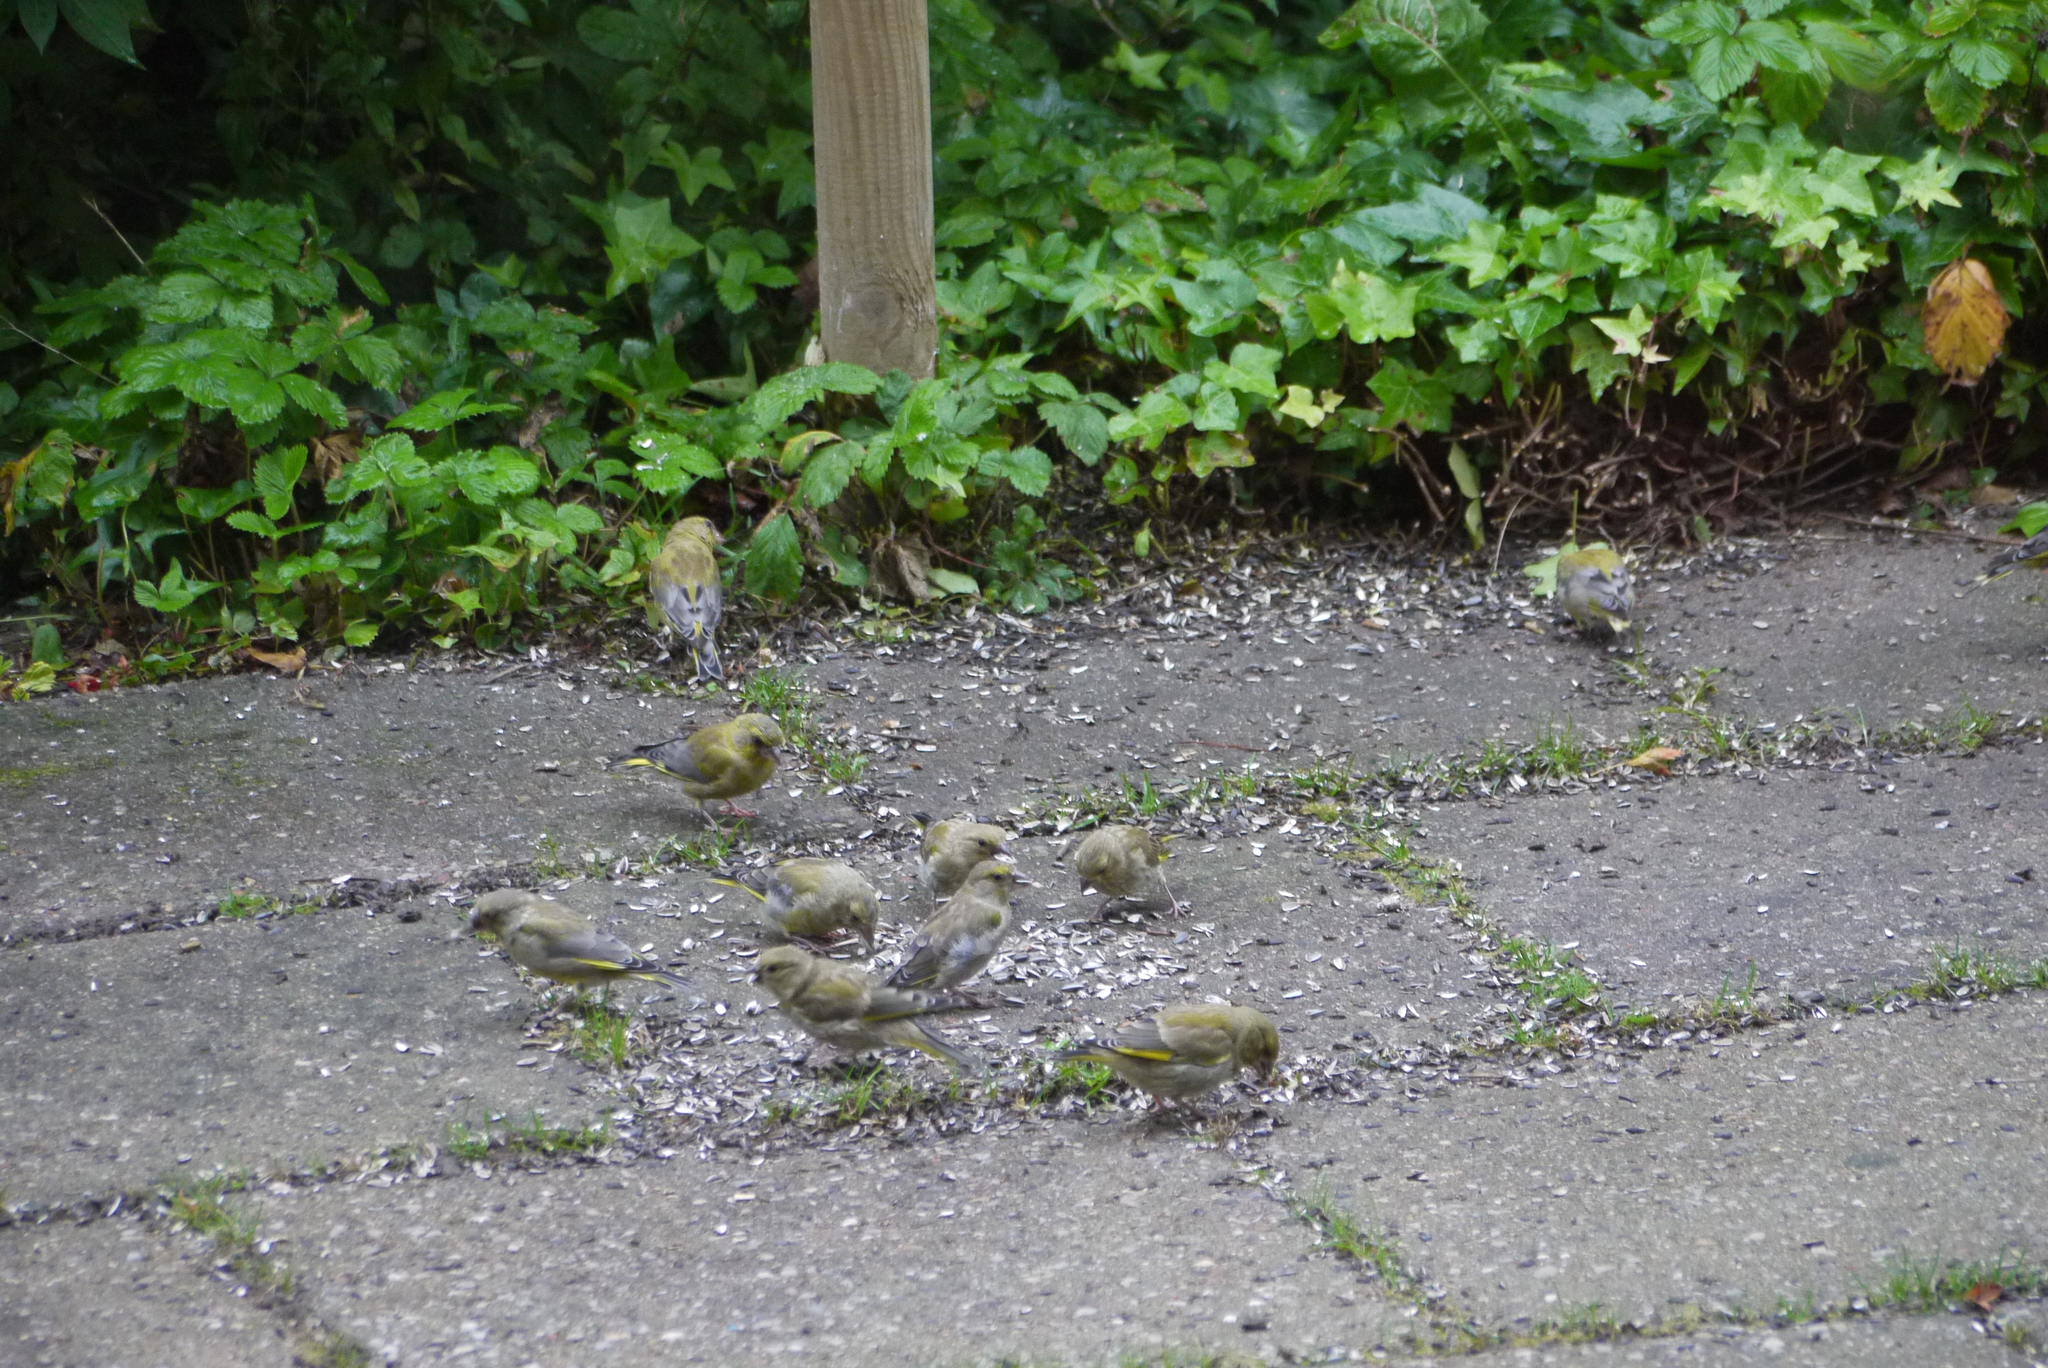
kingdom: Plantae
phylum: Tracheophyta
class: Liliopsida
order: Poales
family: Poaceae
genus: Chloris
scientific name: Chloris chloris
